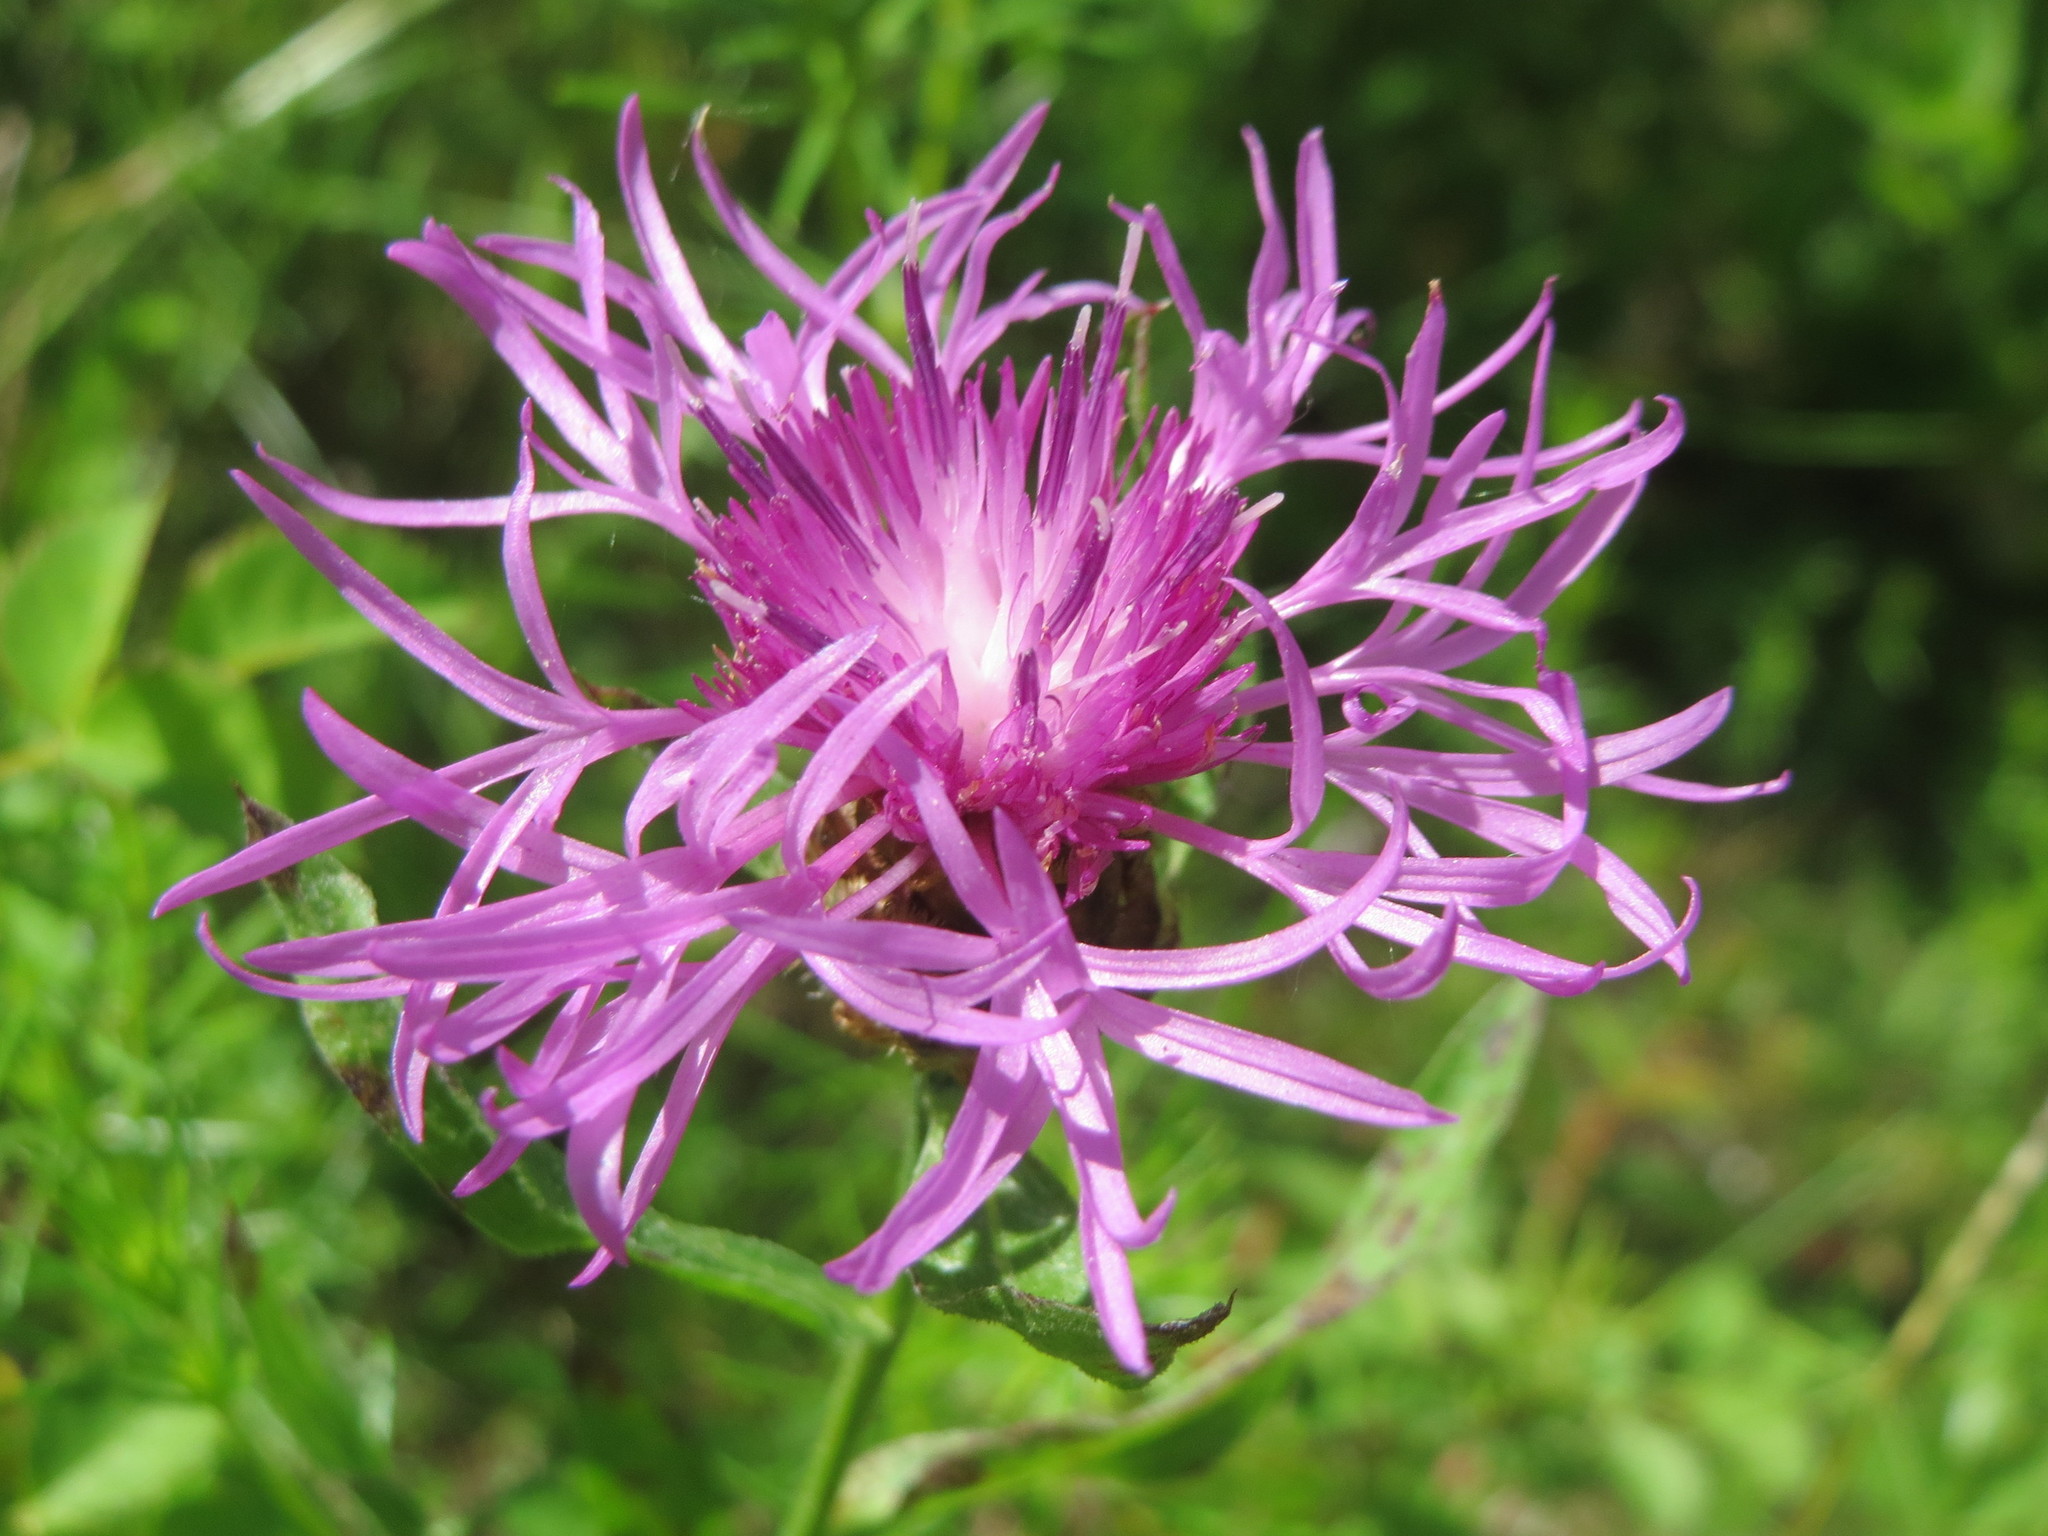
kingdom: Plantae
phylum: Tracheophyta
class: Magnoliopsida
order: Asterales
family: Asteraceae
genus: Centaurea
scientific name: Centaurea jacea
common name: Brown knapweed
